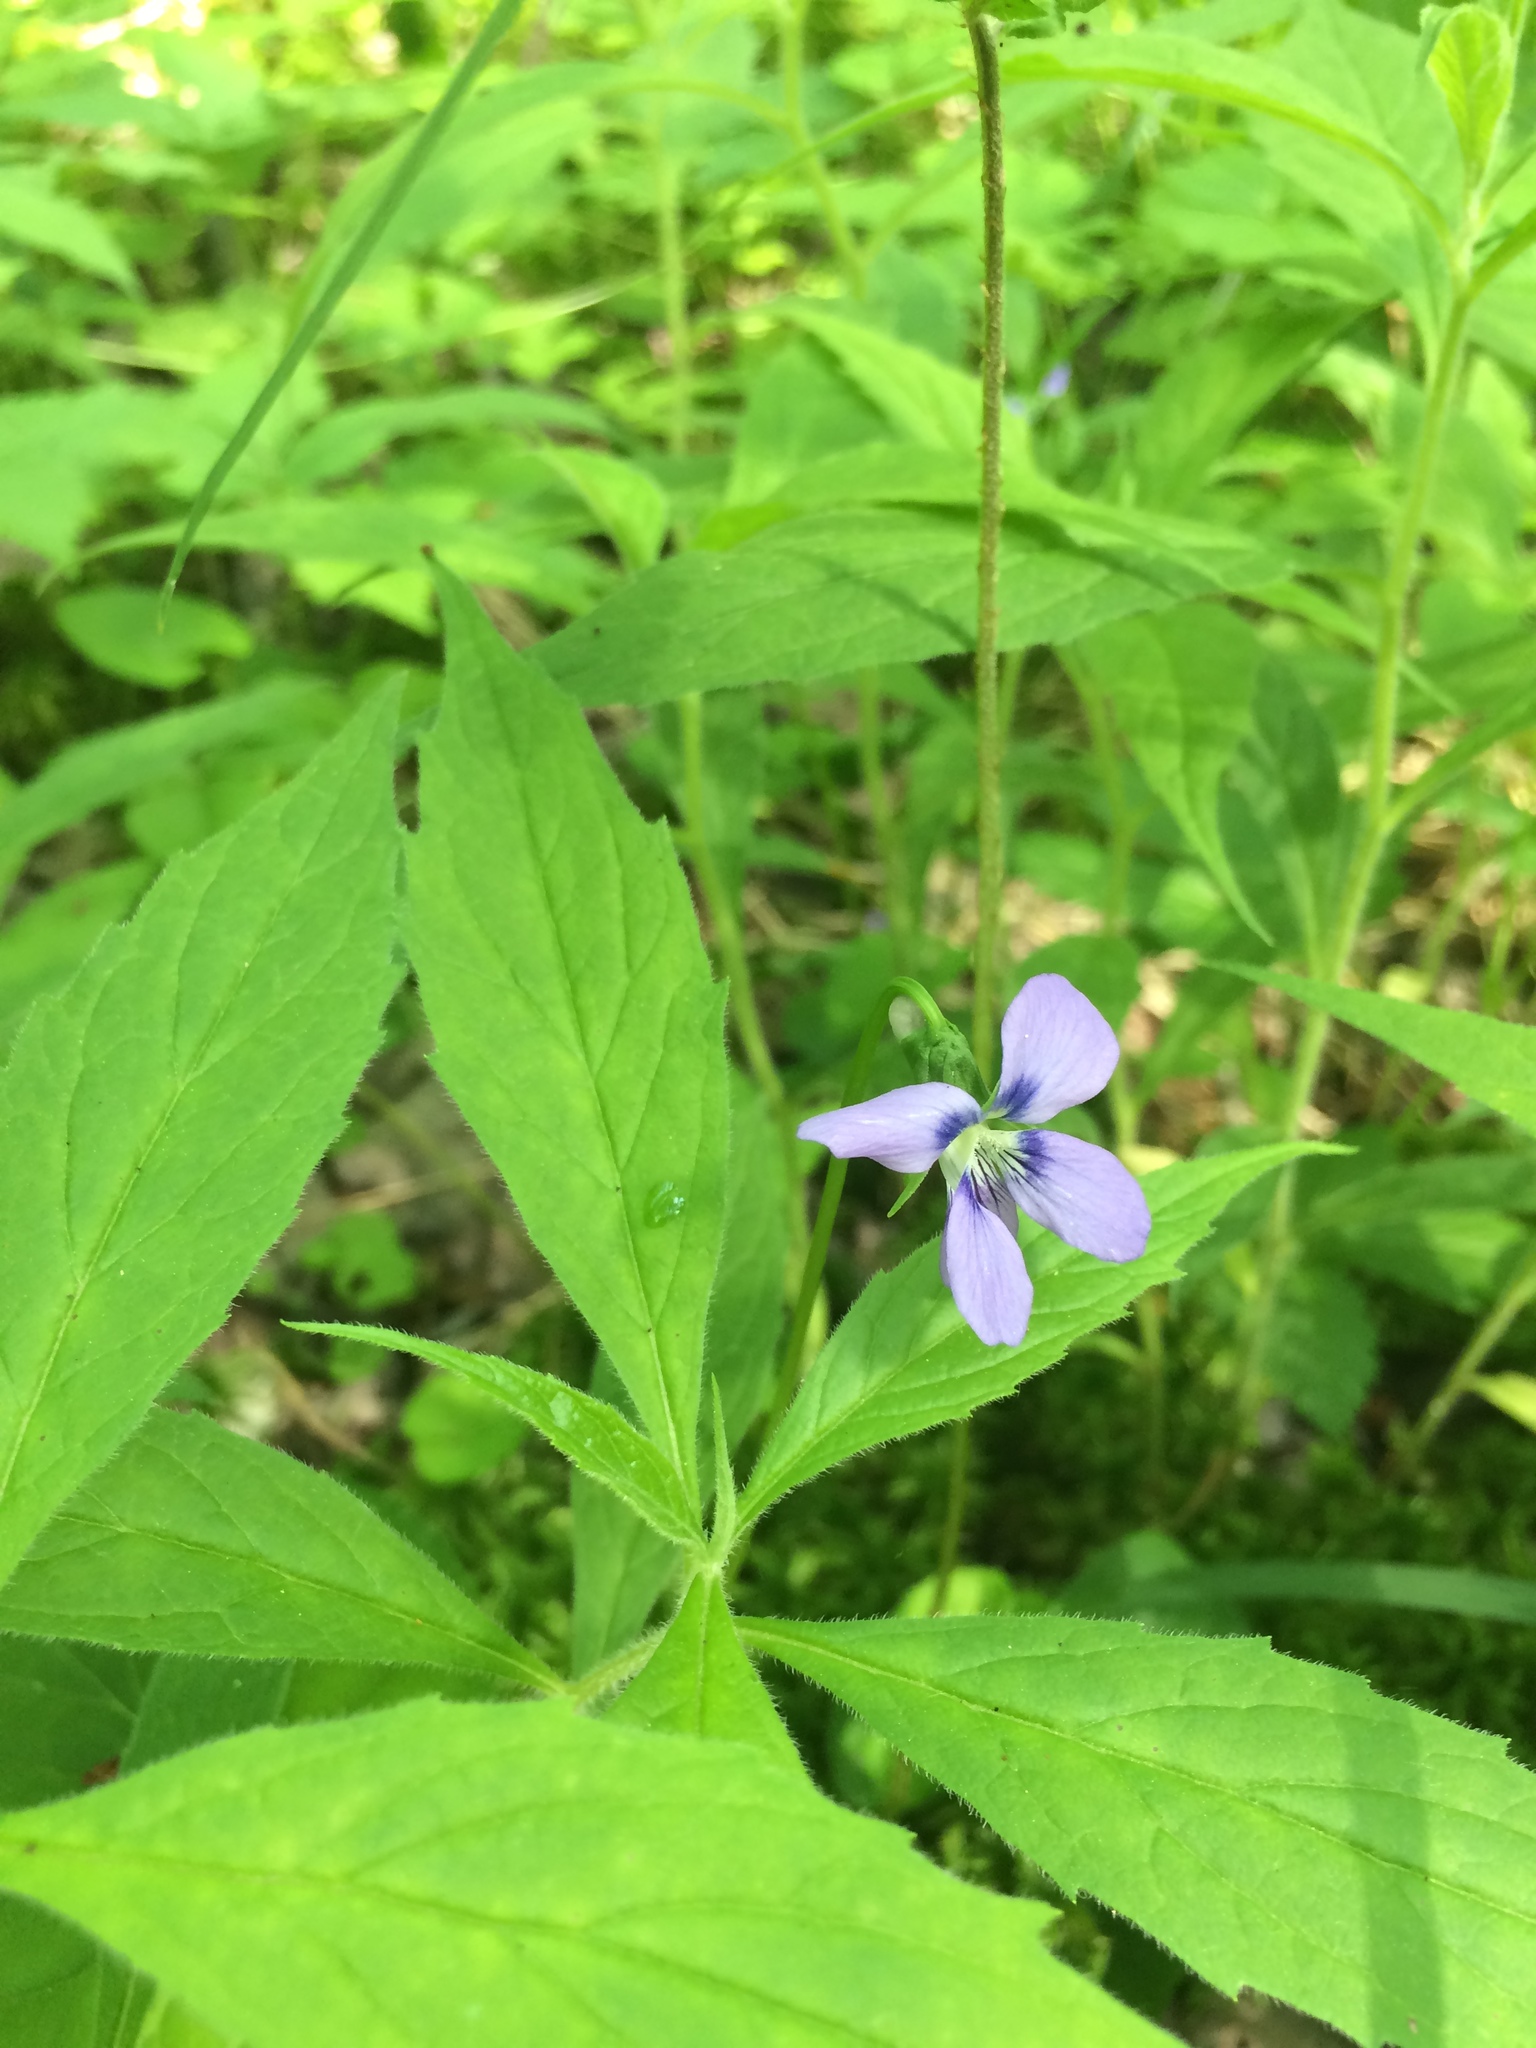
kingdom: Plantae
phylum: Tracheophyta
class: Magnoliopsida
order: Malpighiales
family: Violaceae
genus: Viola
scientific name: Viola cucullata
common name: Marsh blue violet
